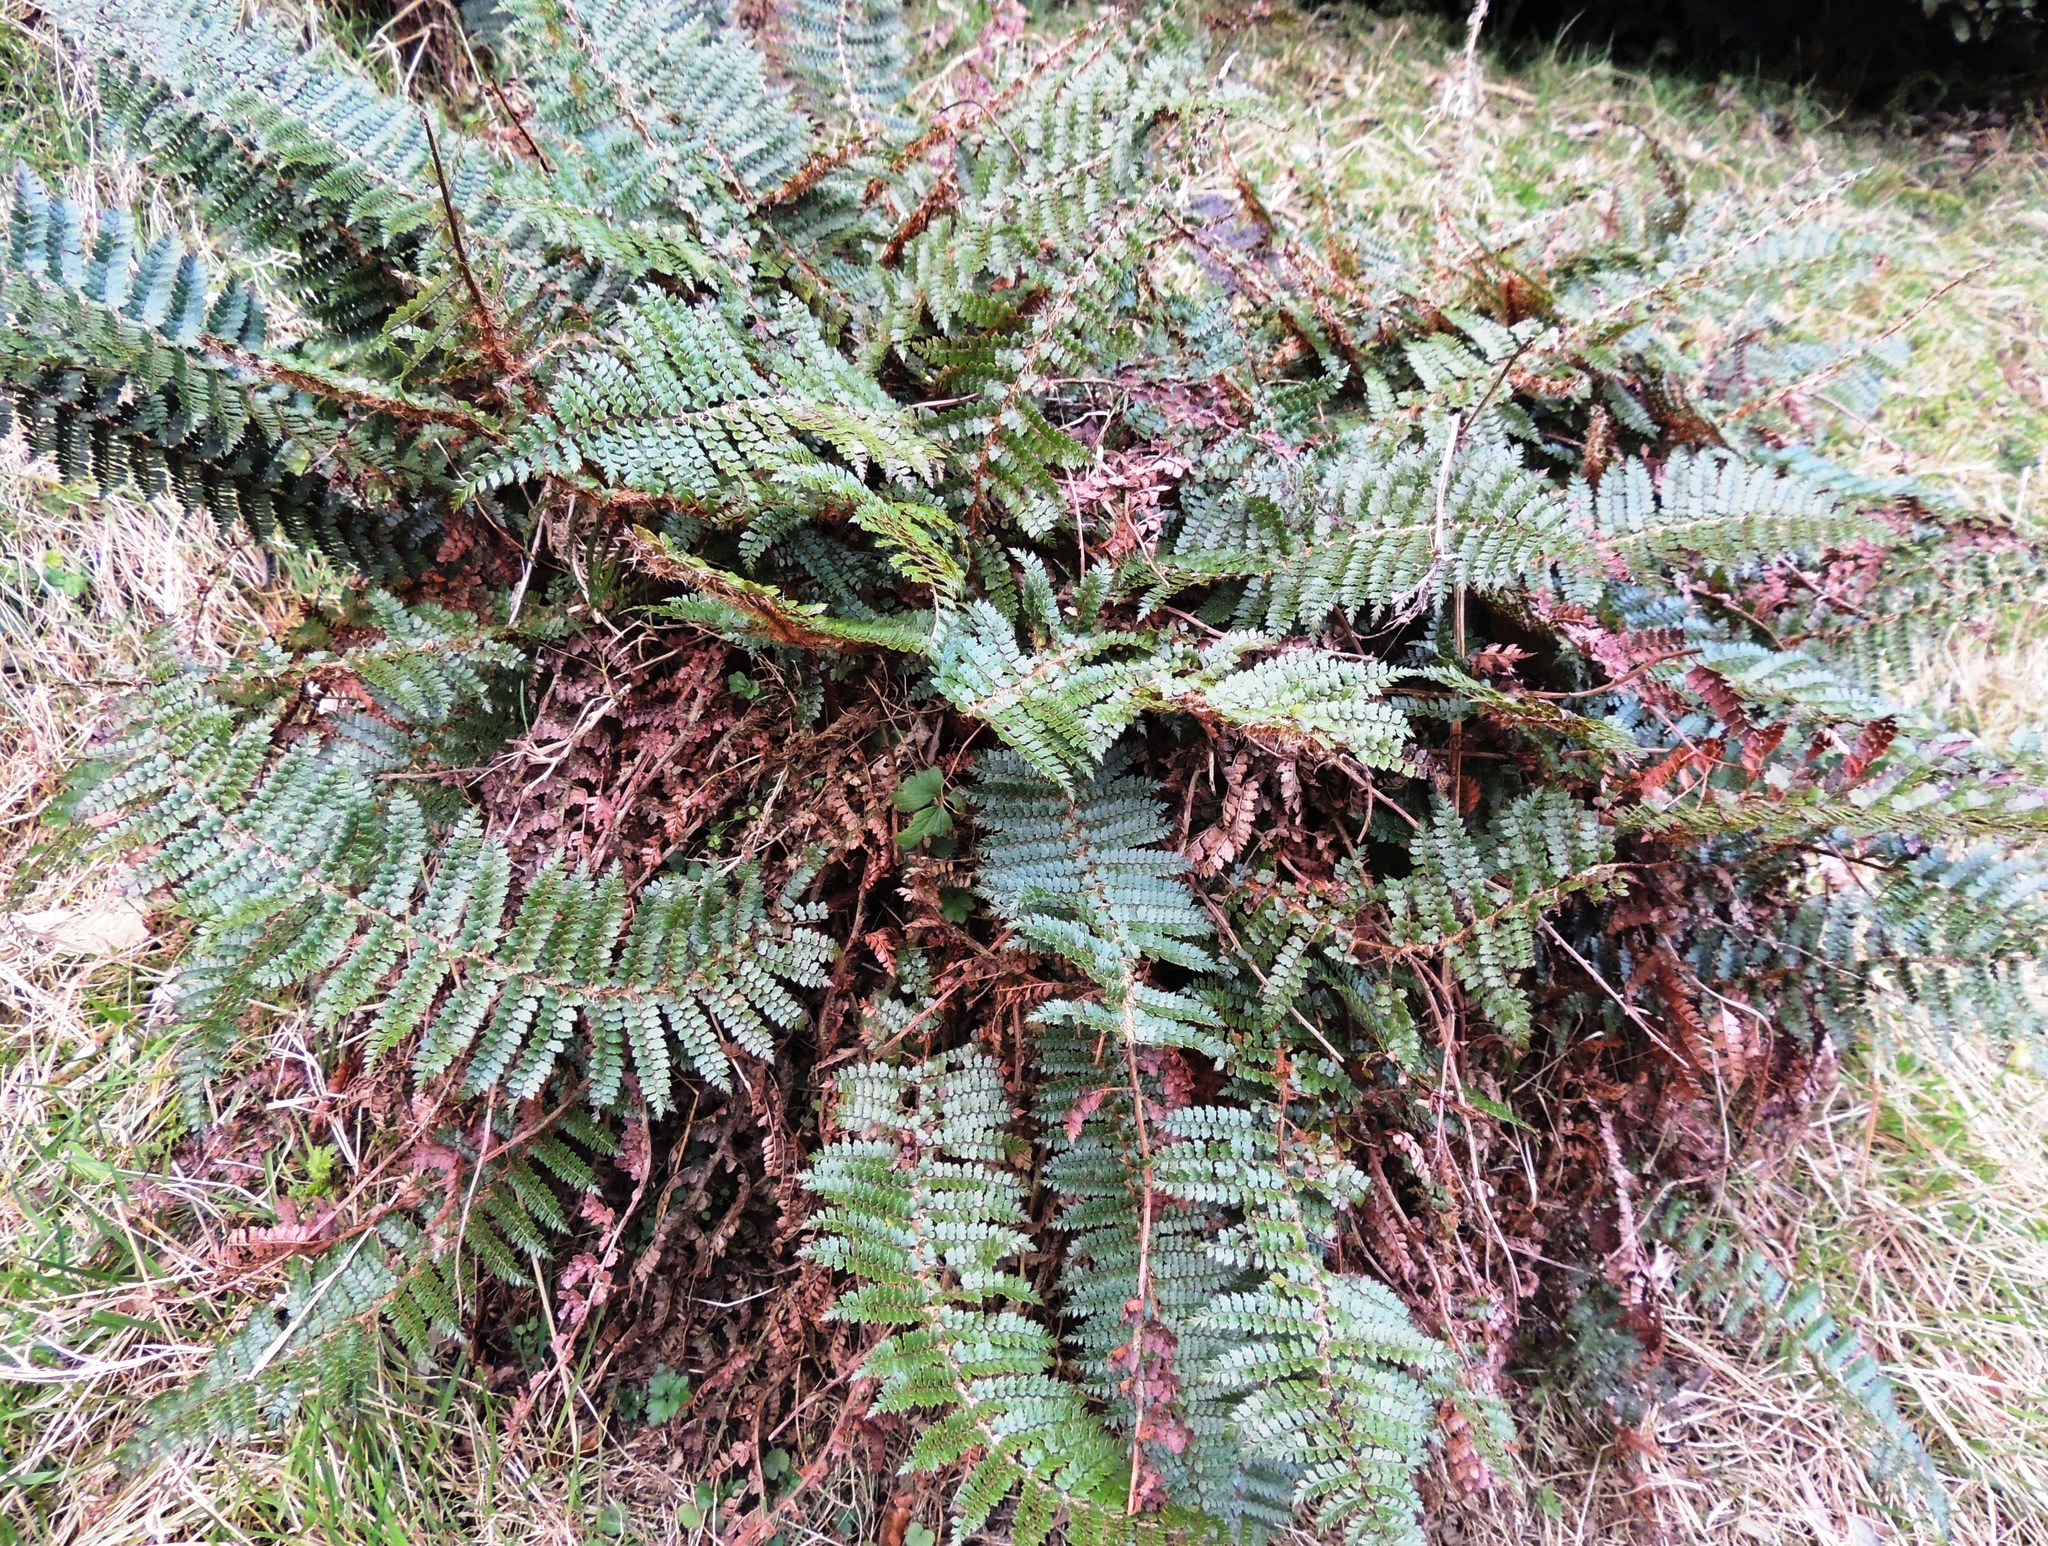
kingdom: Plantae
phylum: Tracheophyta
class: Polypodiopsida
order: Polypodiales
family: Dryopteridaceae
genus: Polystichum
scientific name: Polystichum vestitum
